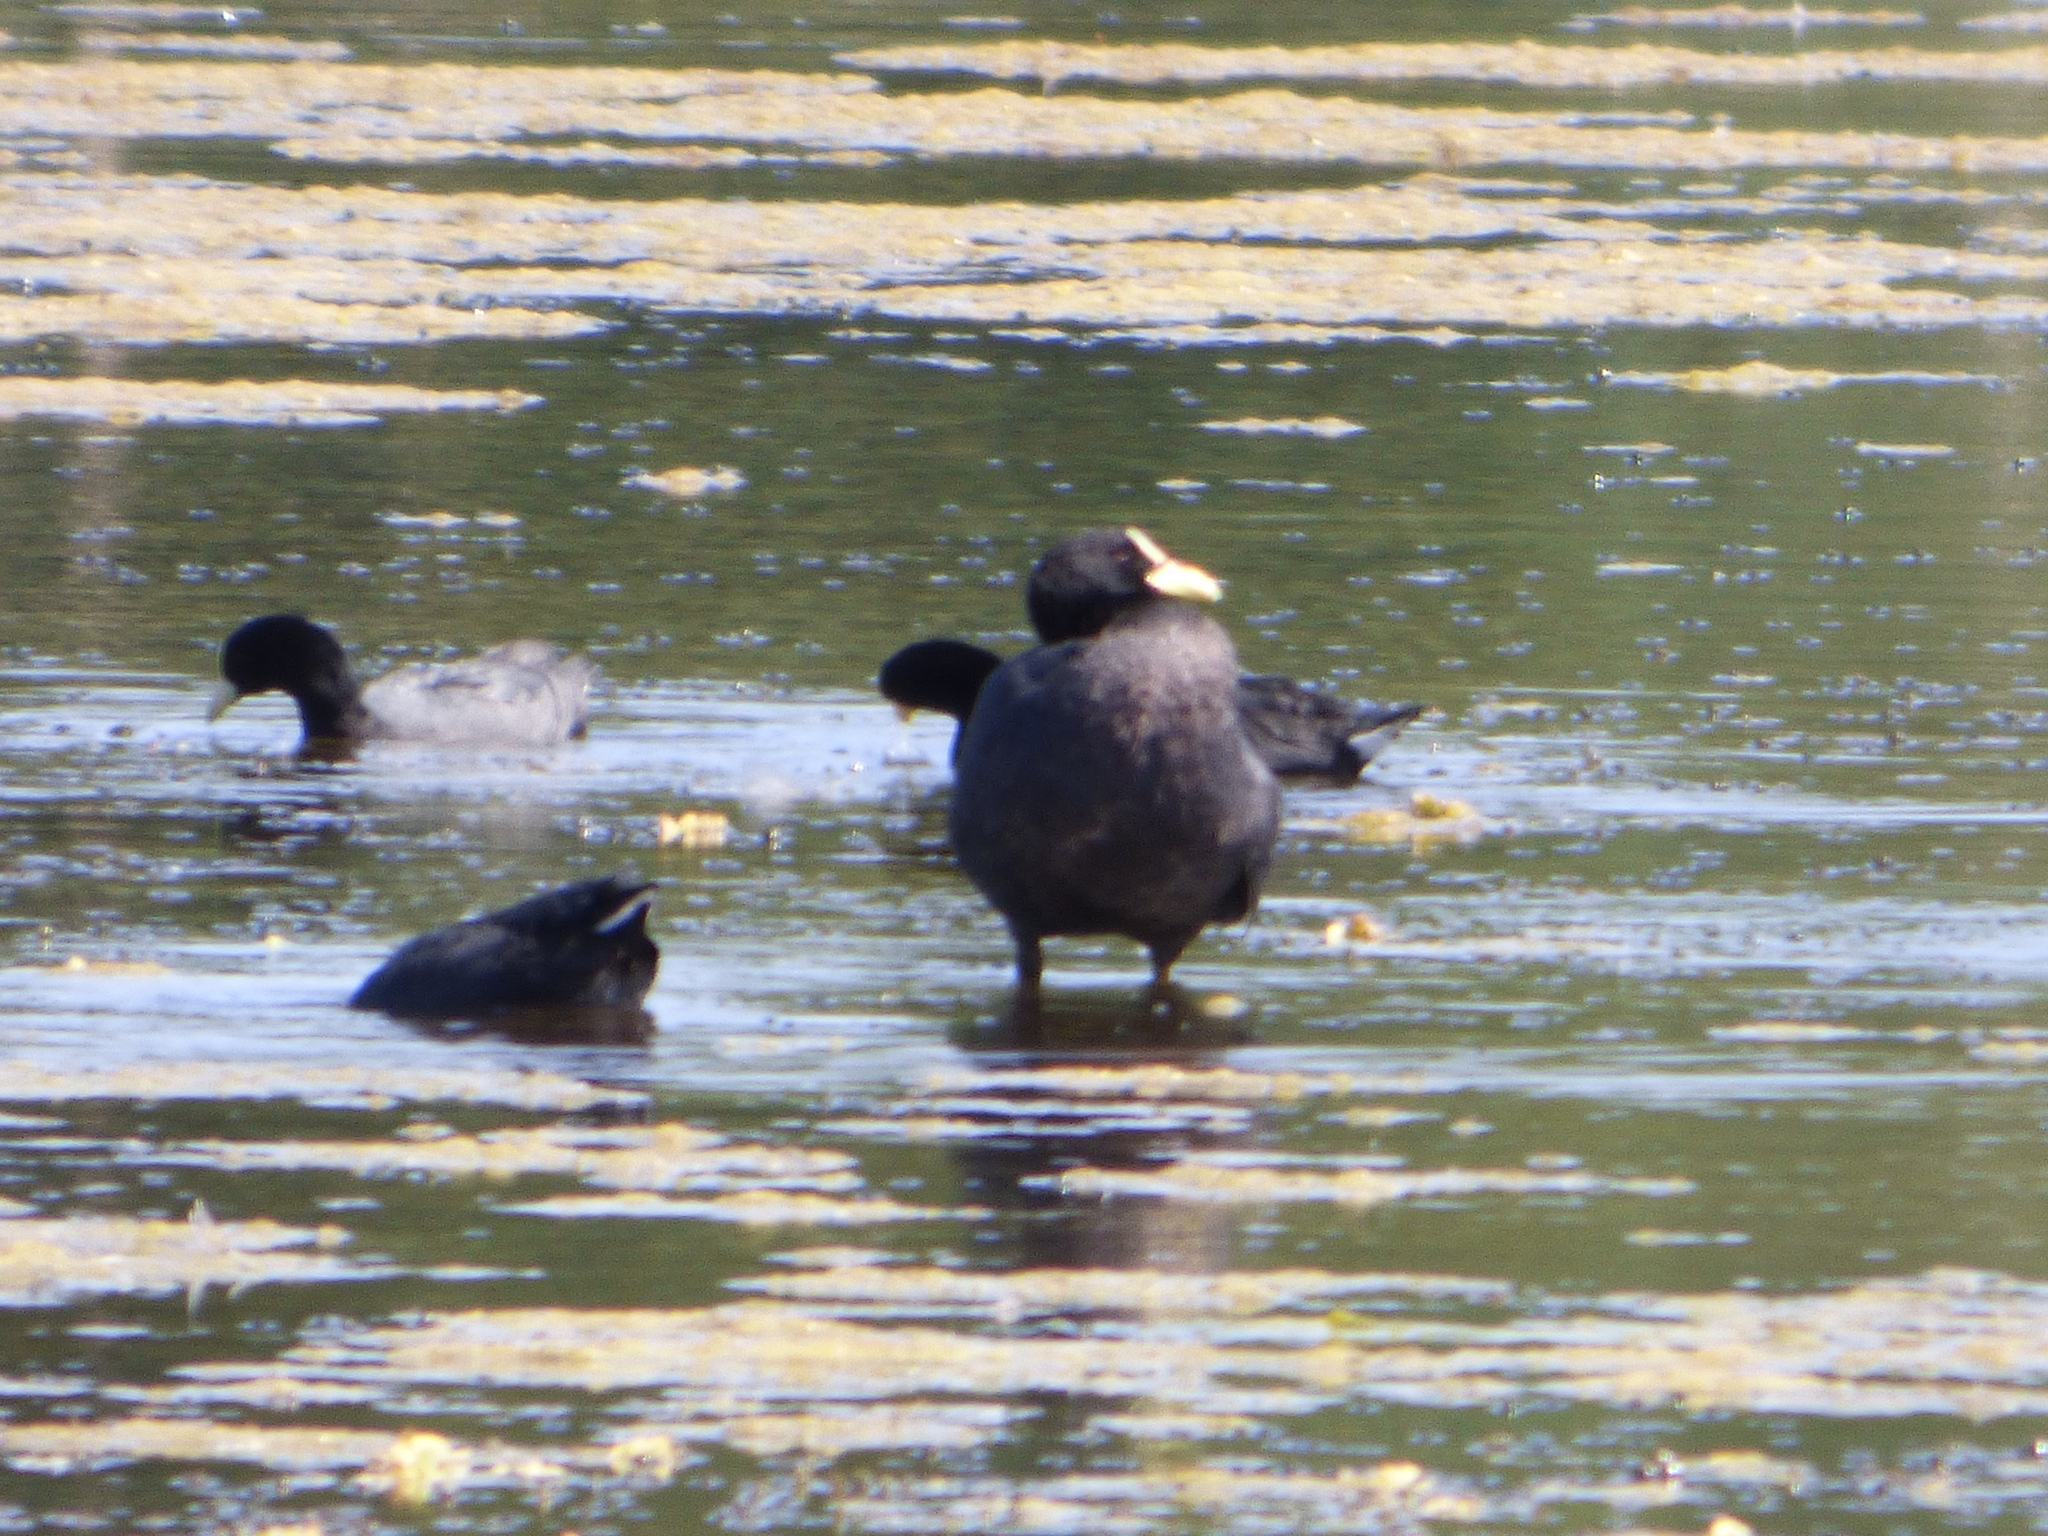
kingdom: Animalia
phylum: Chordata
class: Aves
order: Gruiformes
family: Rallidae
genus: Fulica
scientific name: Fulica armillata
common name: Red-gartered coot
